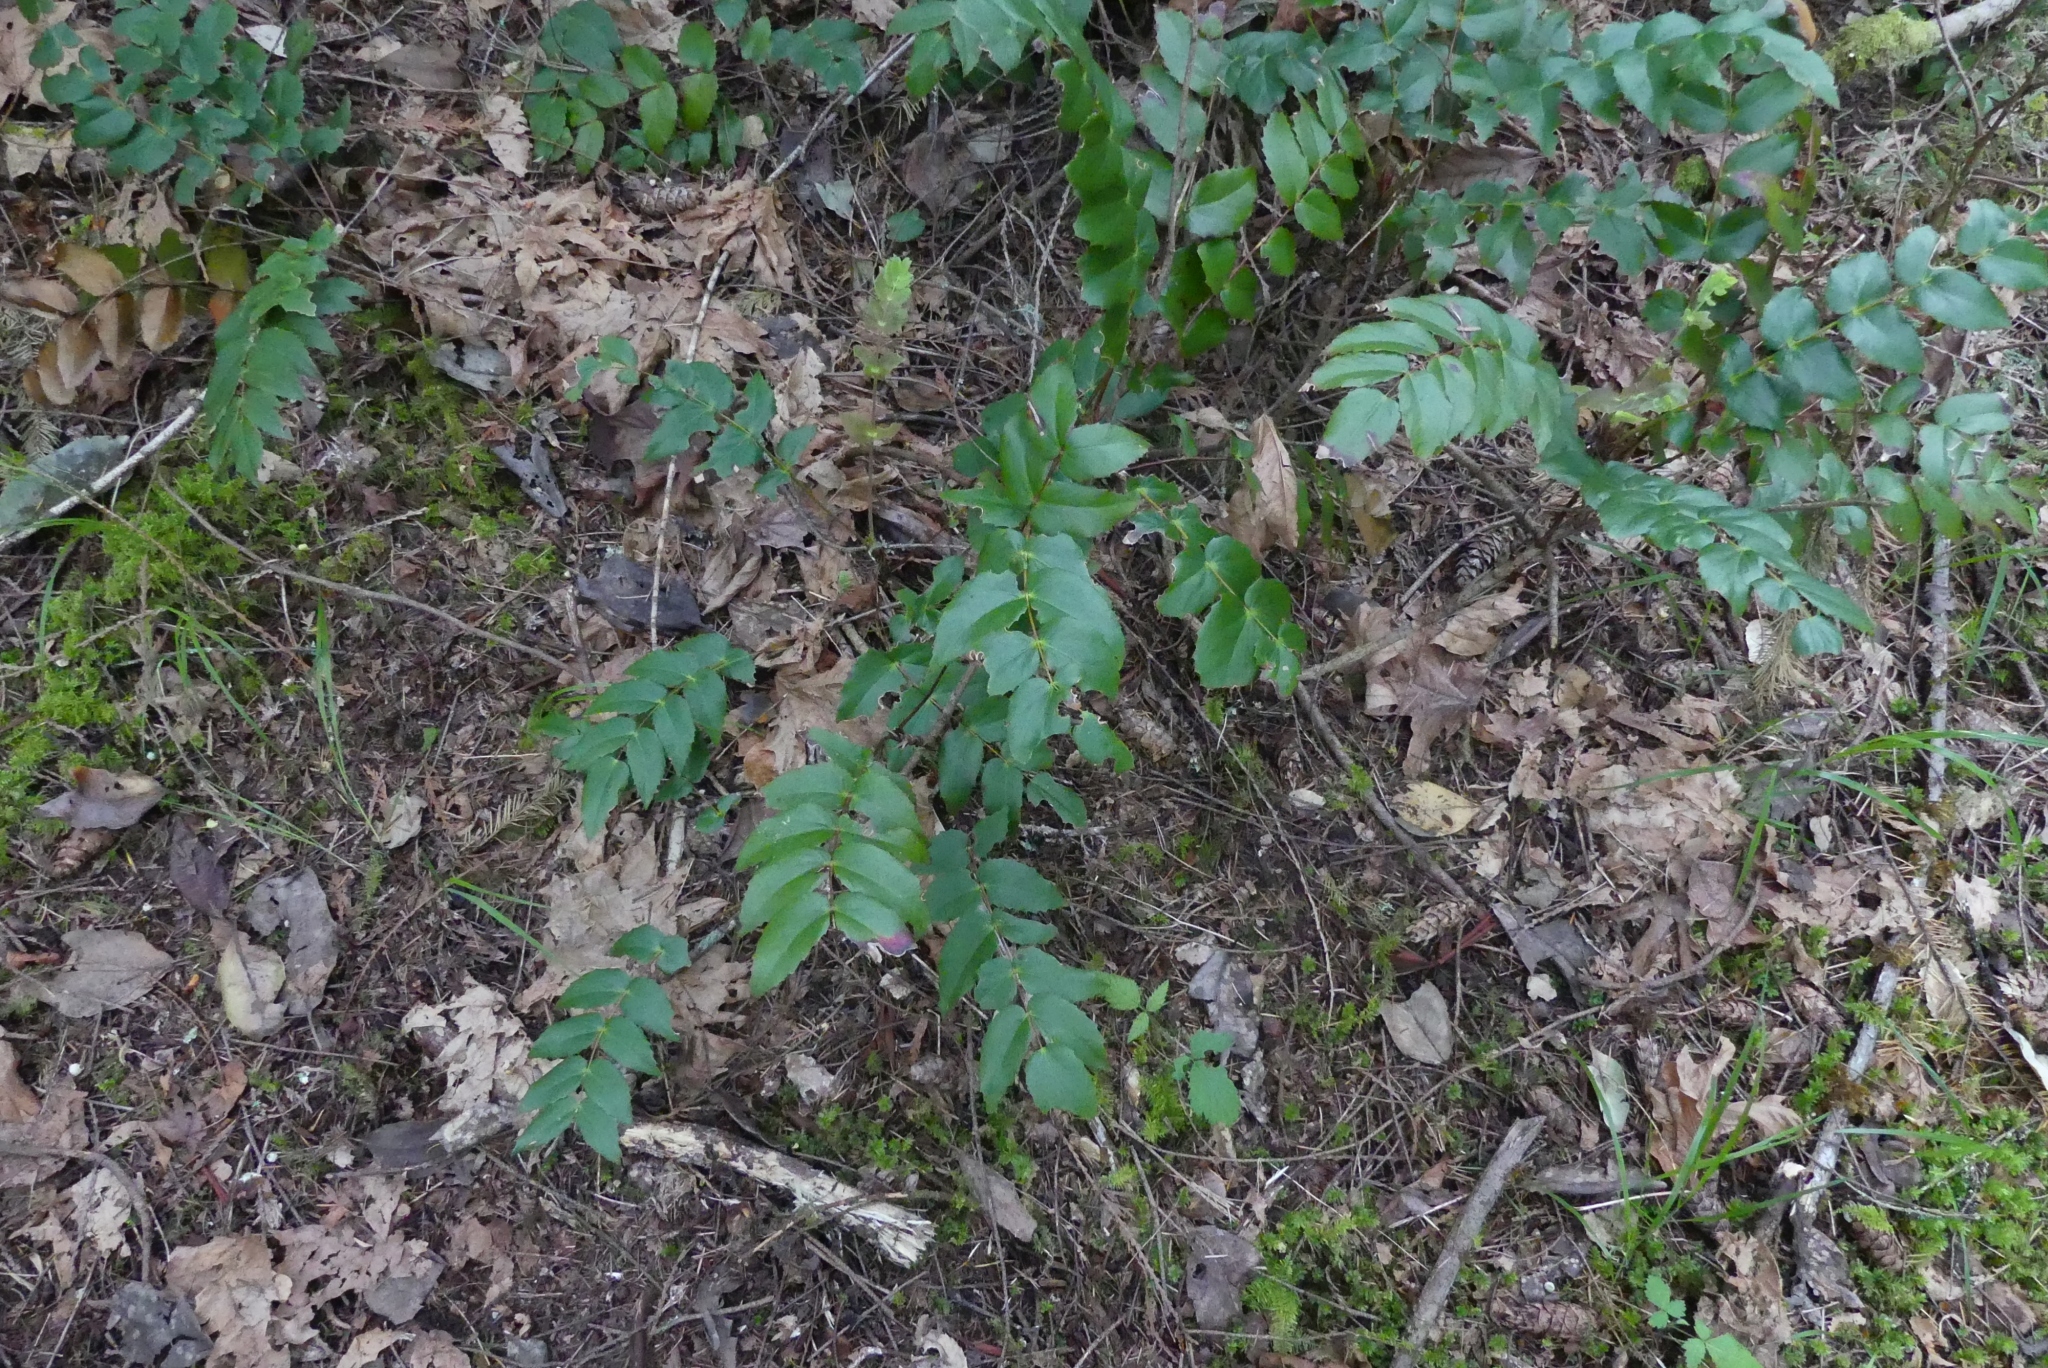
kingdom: Plantae
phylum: Tracheophyta
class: Magnoliopsida
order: Ranunculales
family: Berberidaceae
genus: Mahonia
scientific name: Mahonia nervosa
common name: Cascade oregon-grape
